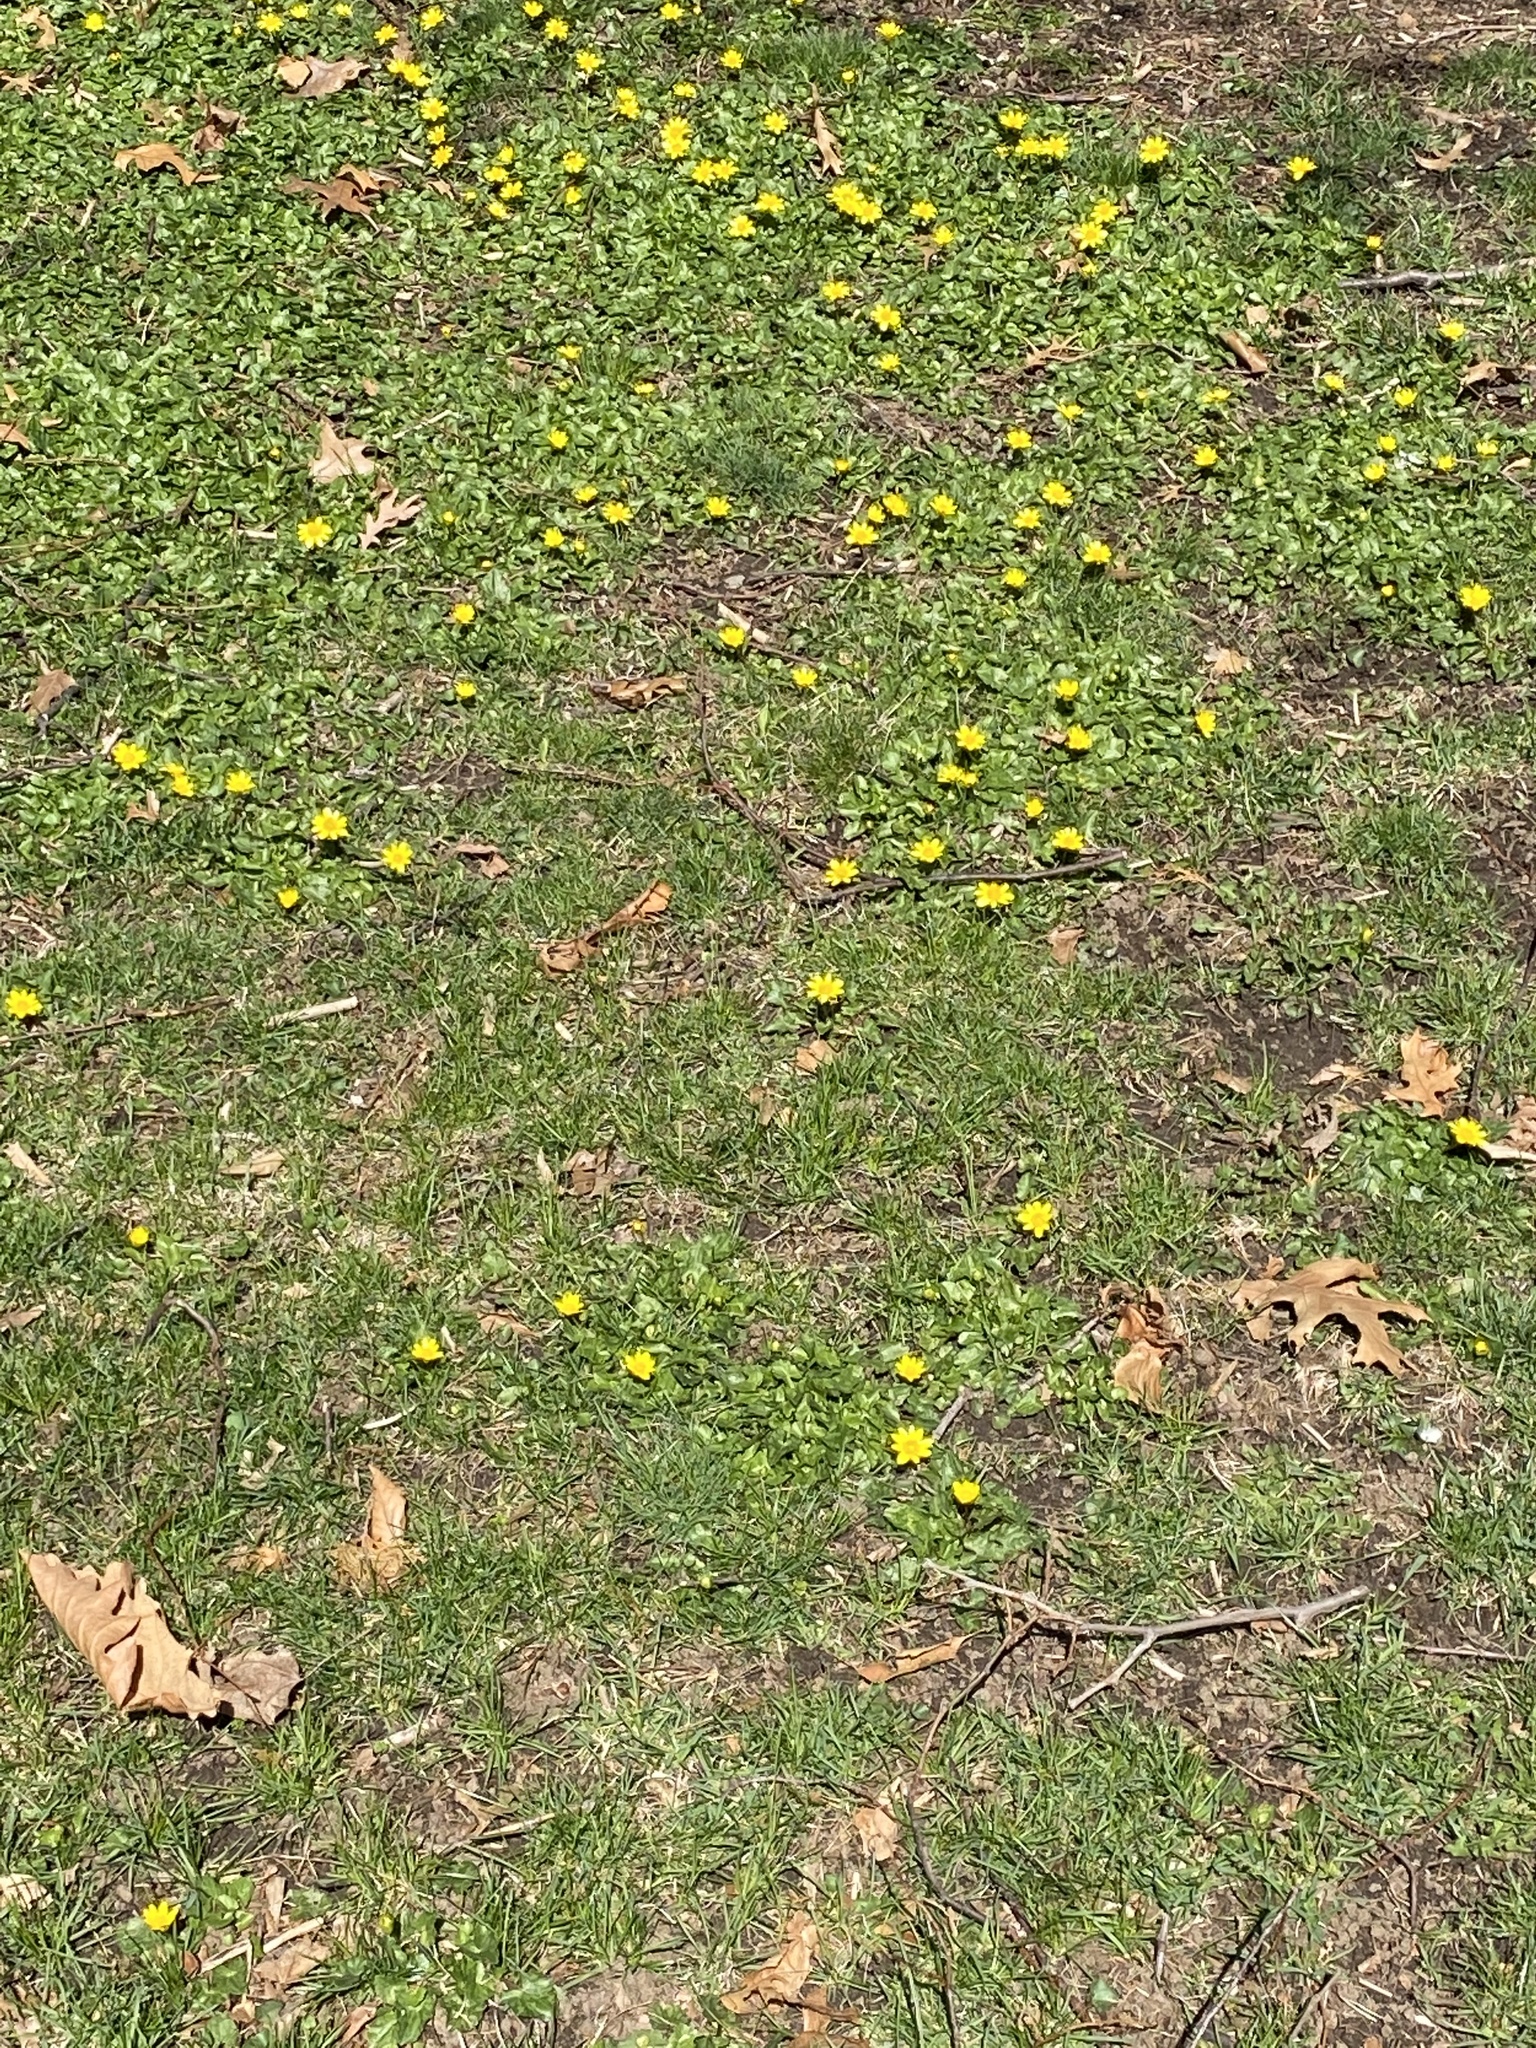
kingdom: Plantae
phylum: Tracheophyta
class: Magnoliopsida
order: Ranunculales
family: Ranunculaceae
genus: Ficaria
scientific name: Ficaria verna
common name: Lesser celandine
